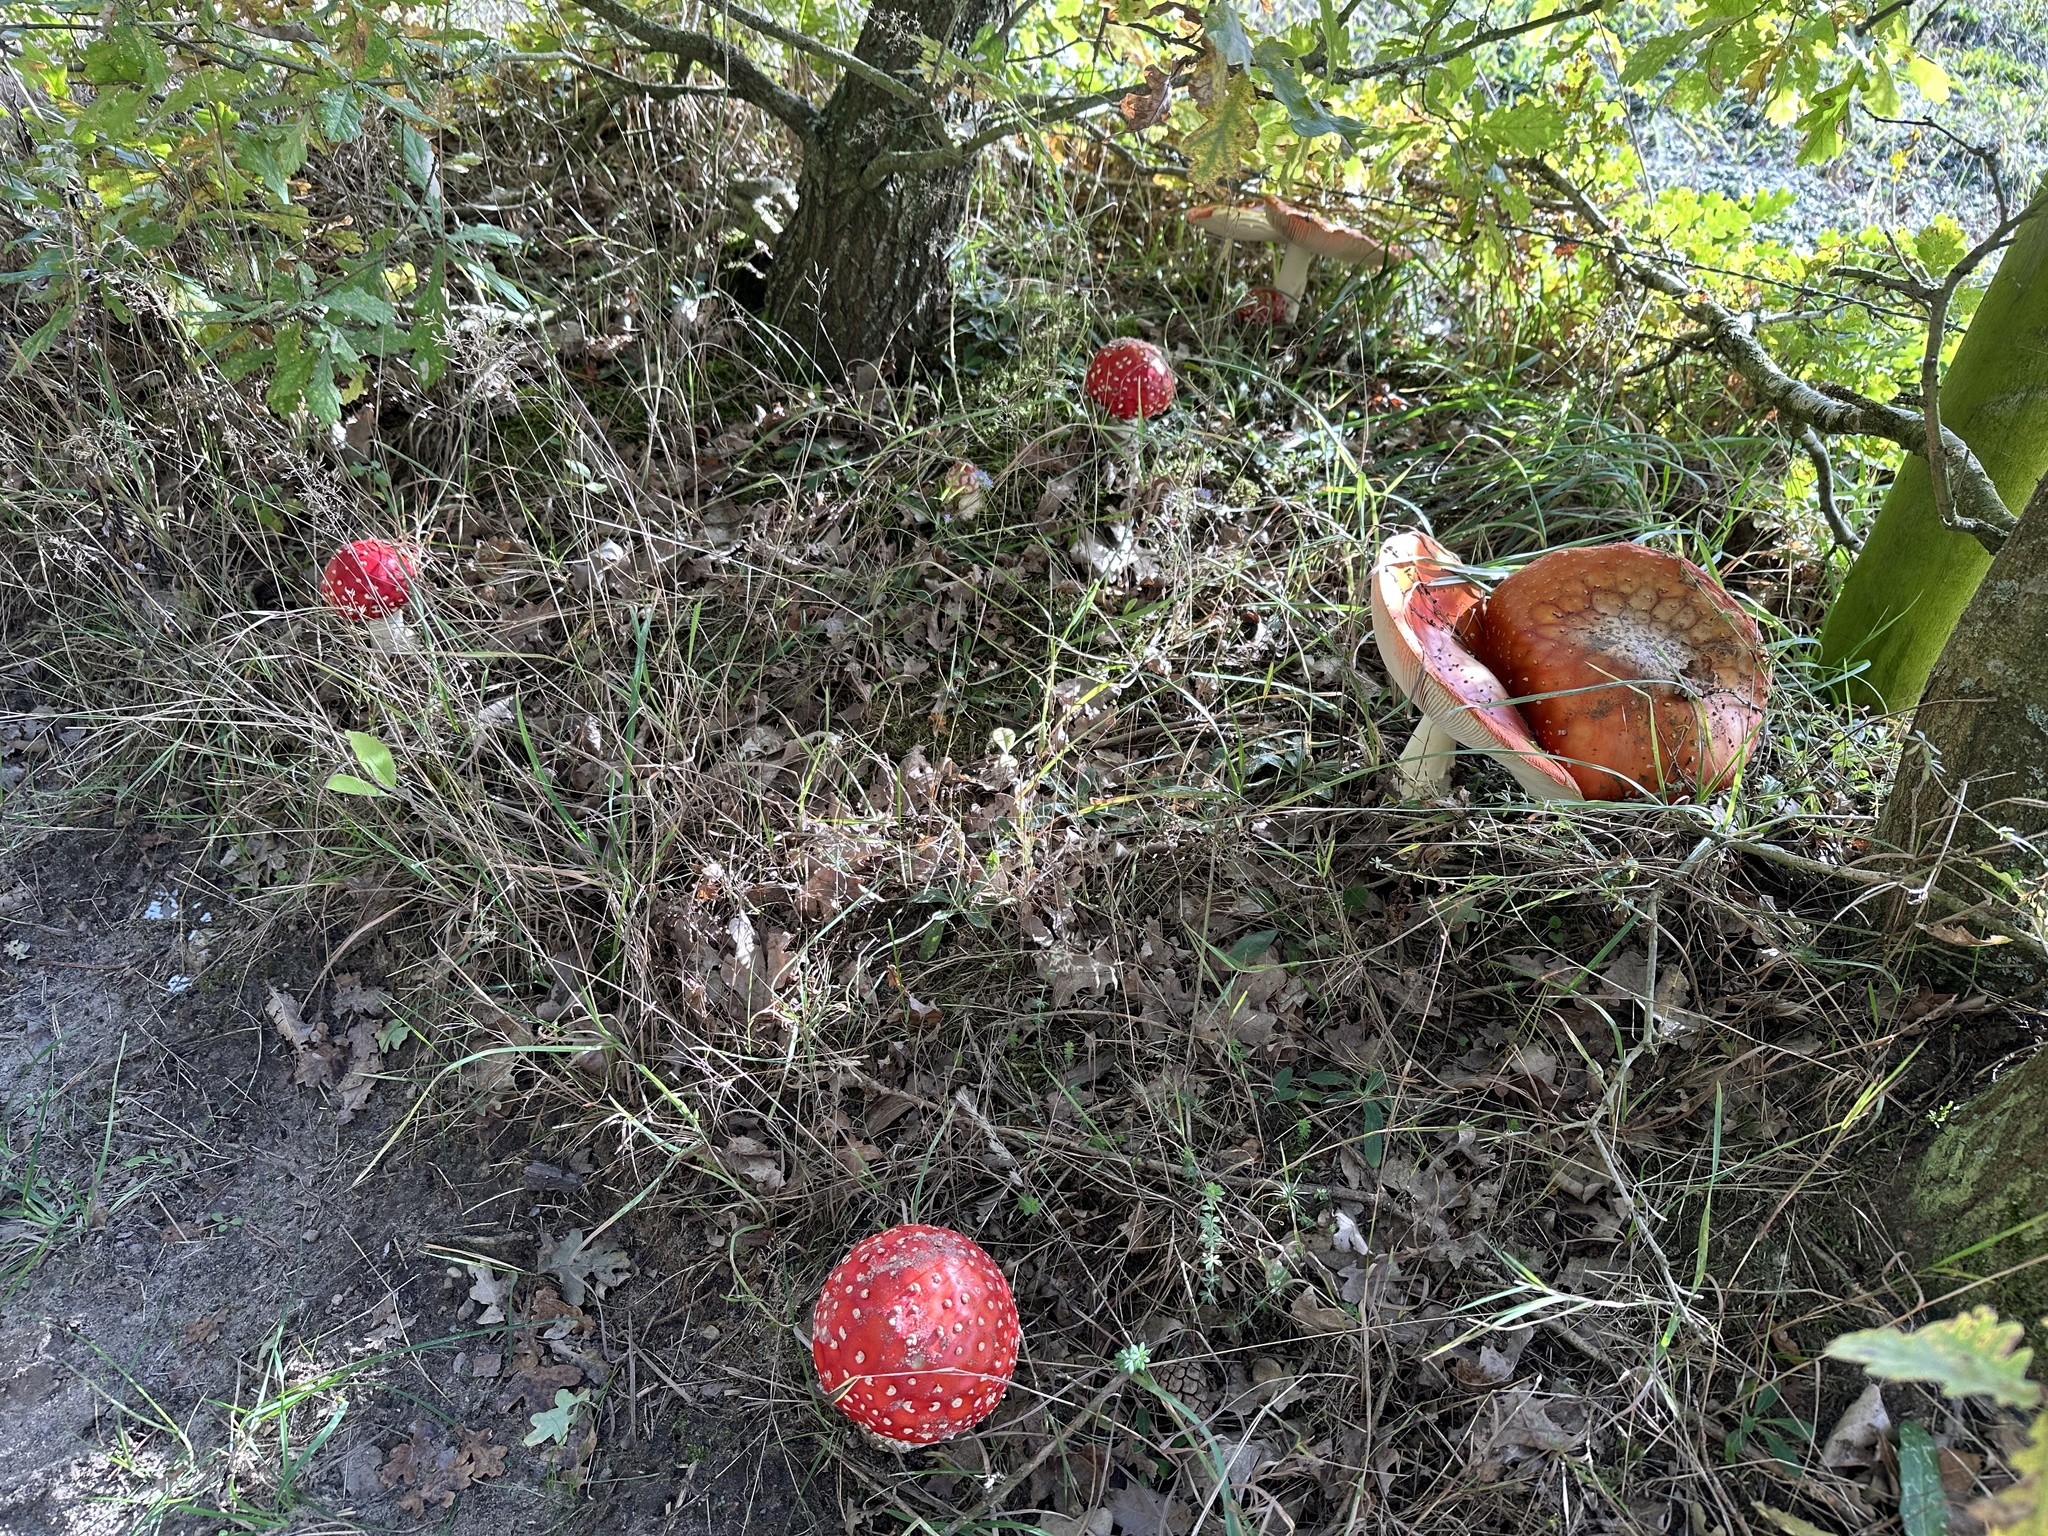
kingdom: Fungi
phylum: Basidiomycota
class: Agaricomycetes
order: Agaricales
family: Amanitaceae
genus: Amanita
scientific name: Amanita muscaria
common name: Fly agaric
